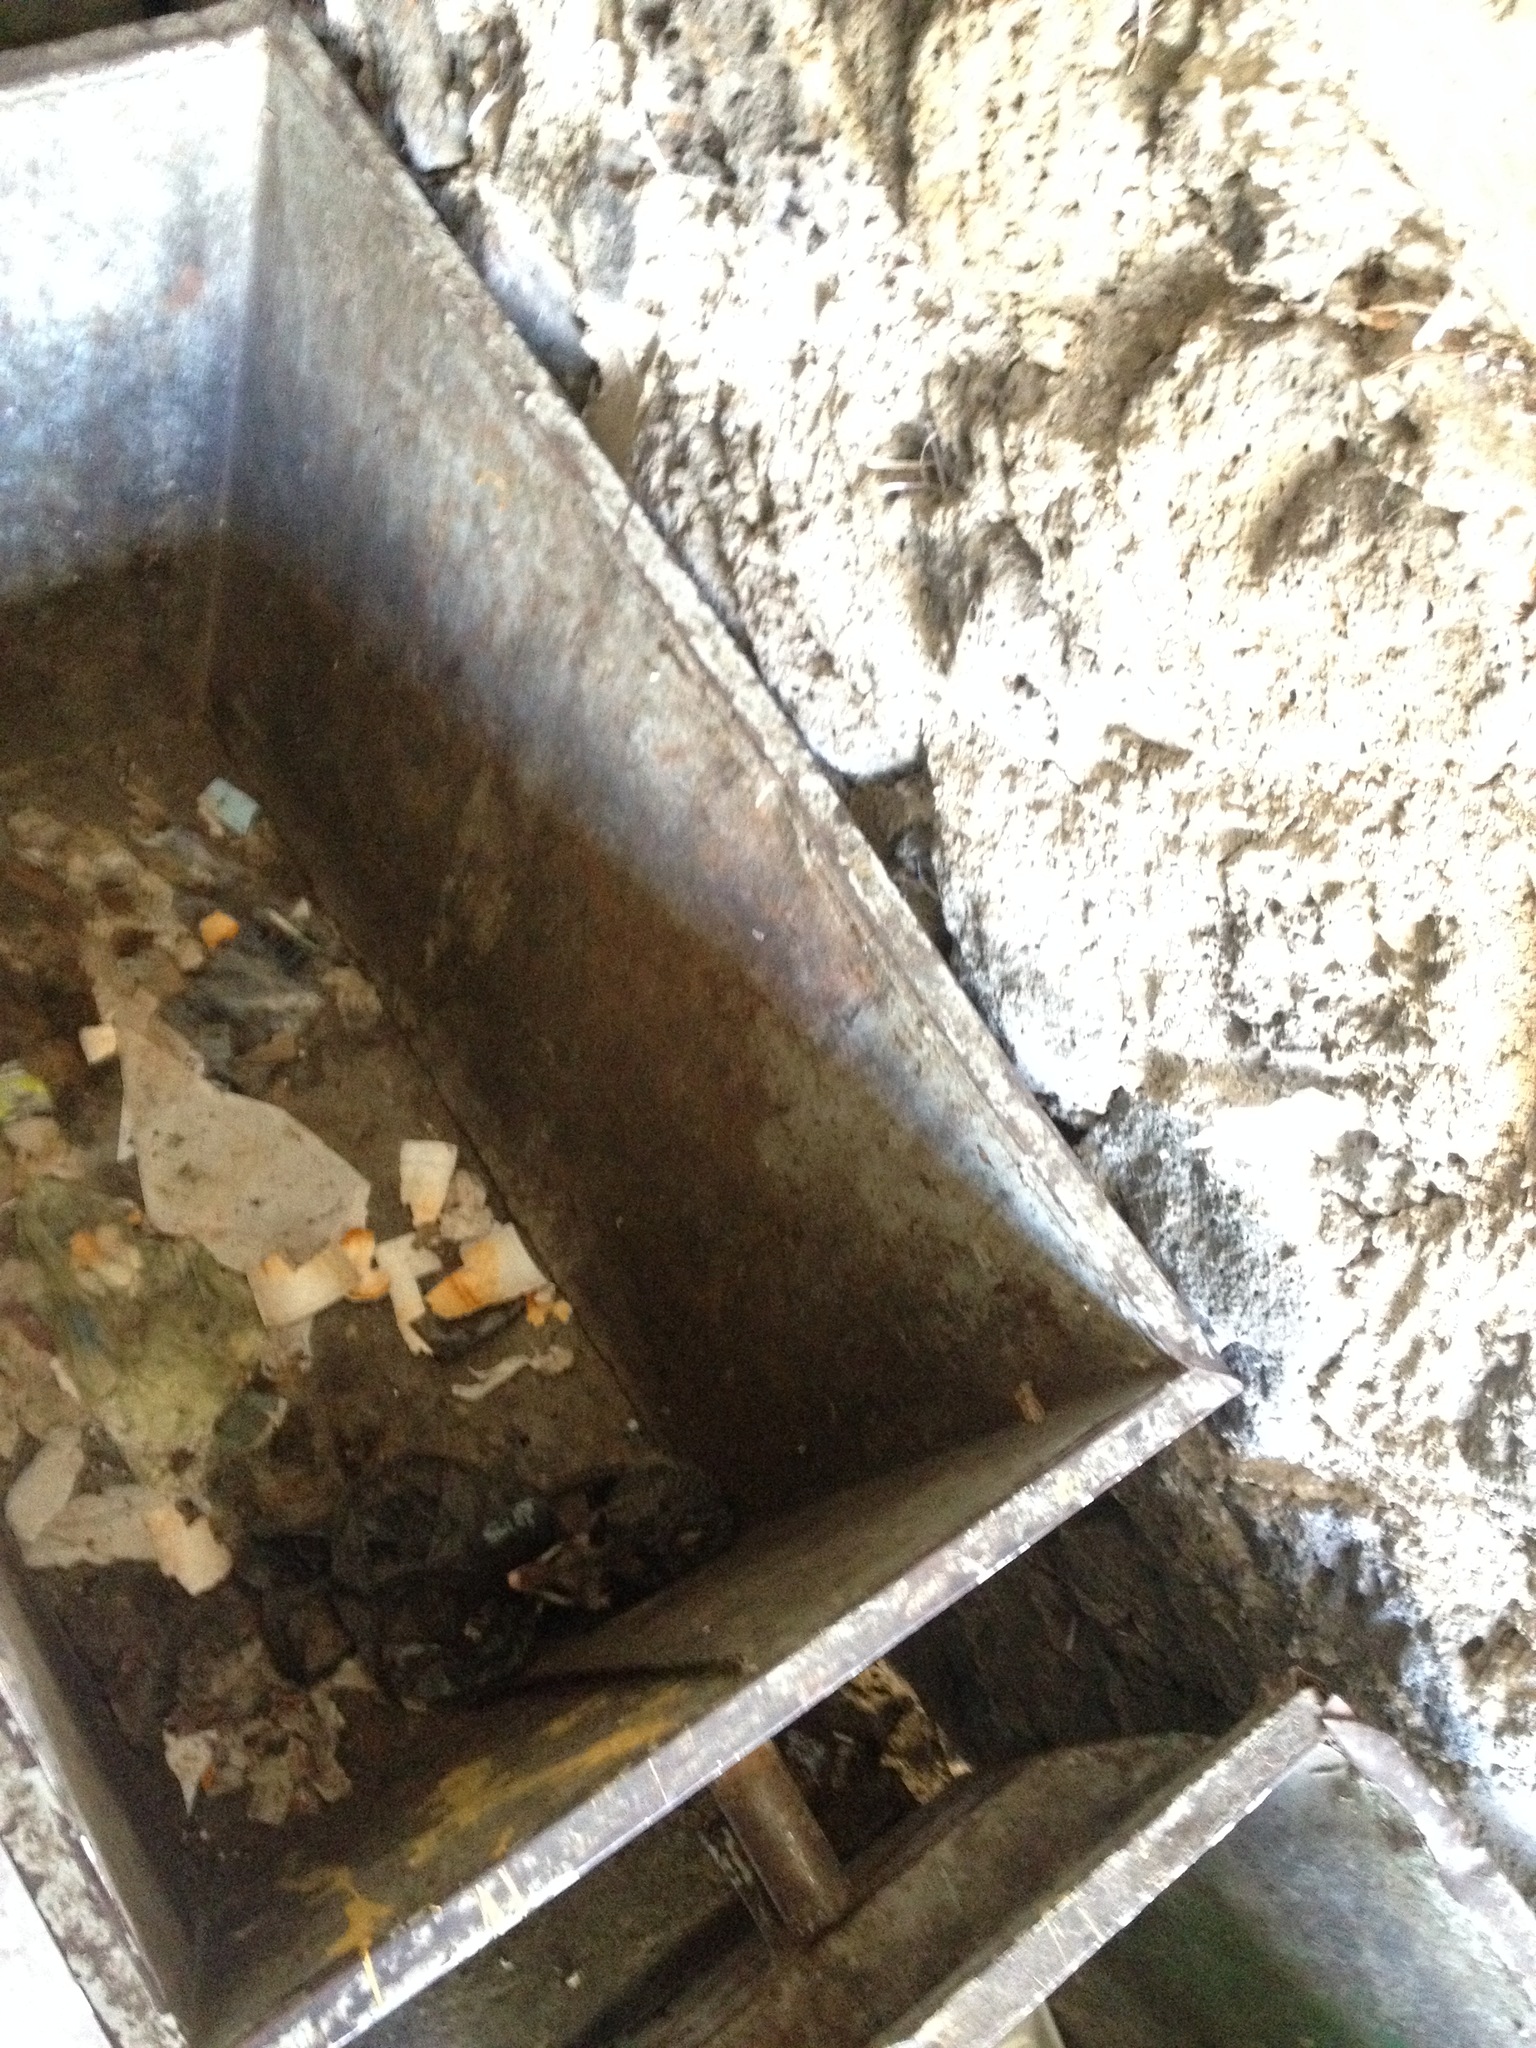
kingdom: Animalia
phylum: Chordata
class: Mammalia
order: Didelphimorphia
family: Didelphidae
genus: Didelphis
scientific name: Didelphis virginiana
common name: Virginia opossum
